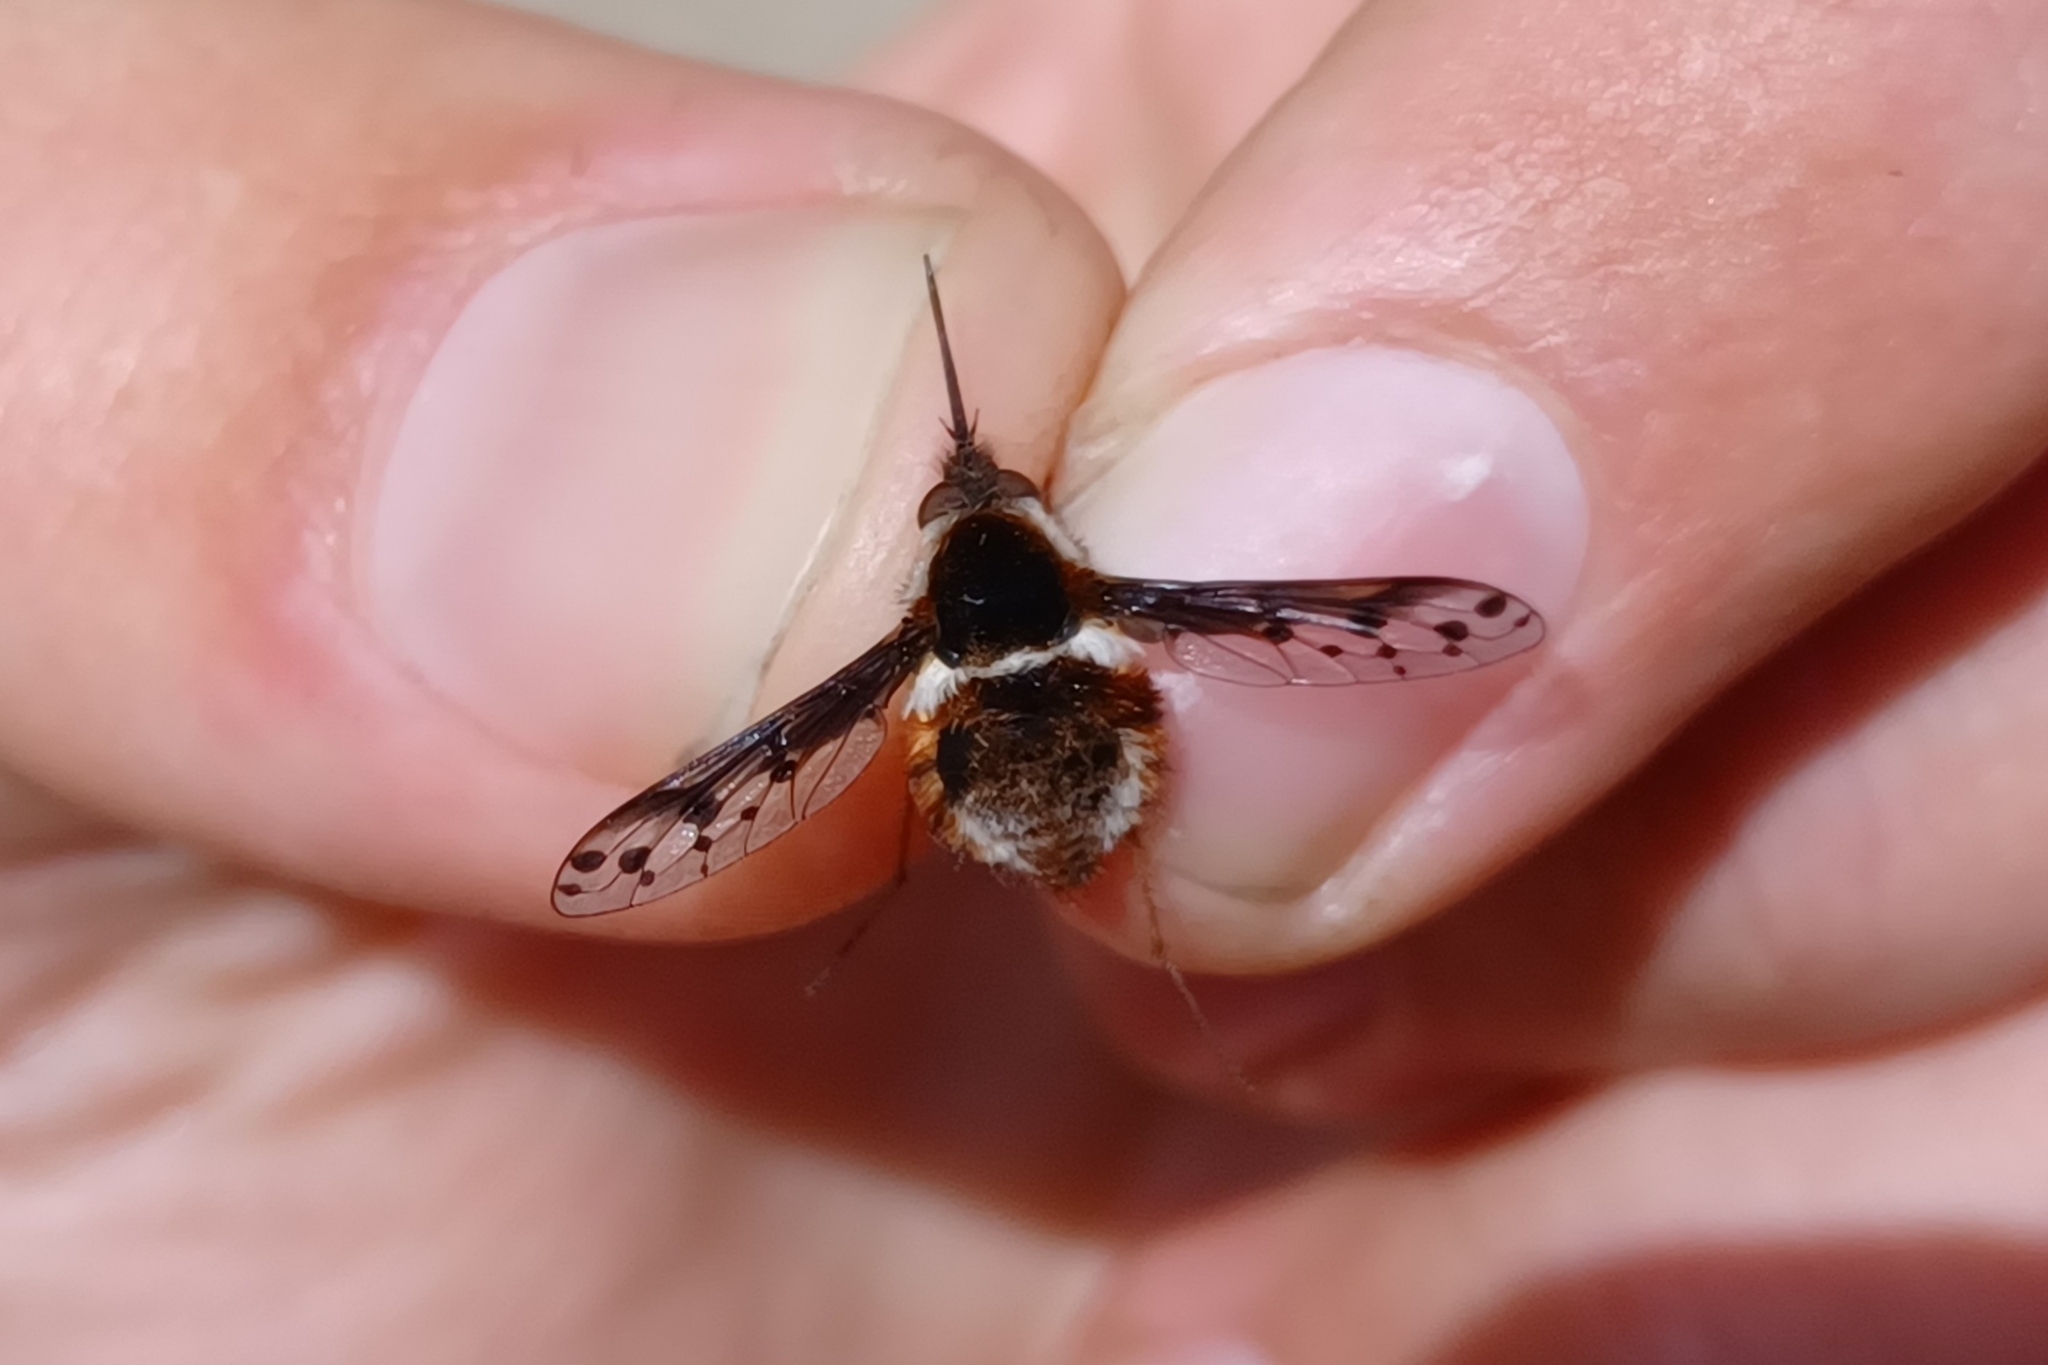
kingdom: Animalia
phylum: Arthropoda
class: Insecta
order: Diptera
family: Bombyliidae
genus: Bombylius
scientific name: Bombylius pygmaeus
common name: Pygmy bee fly
